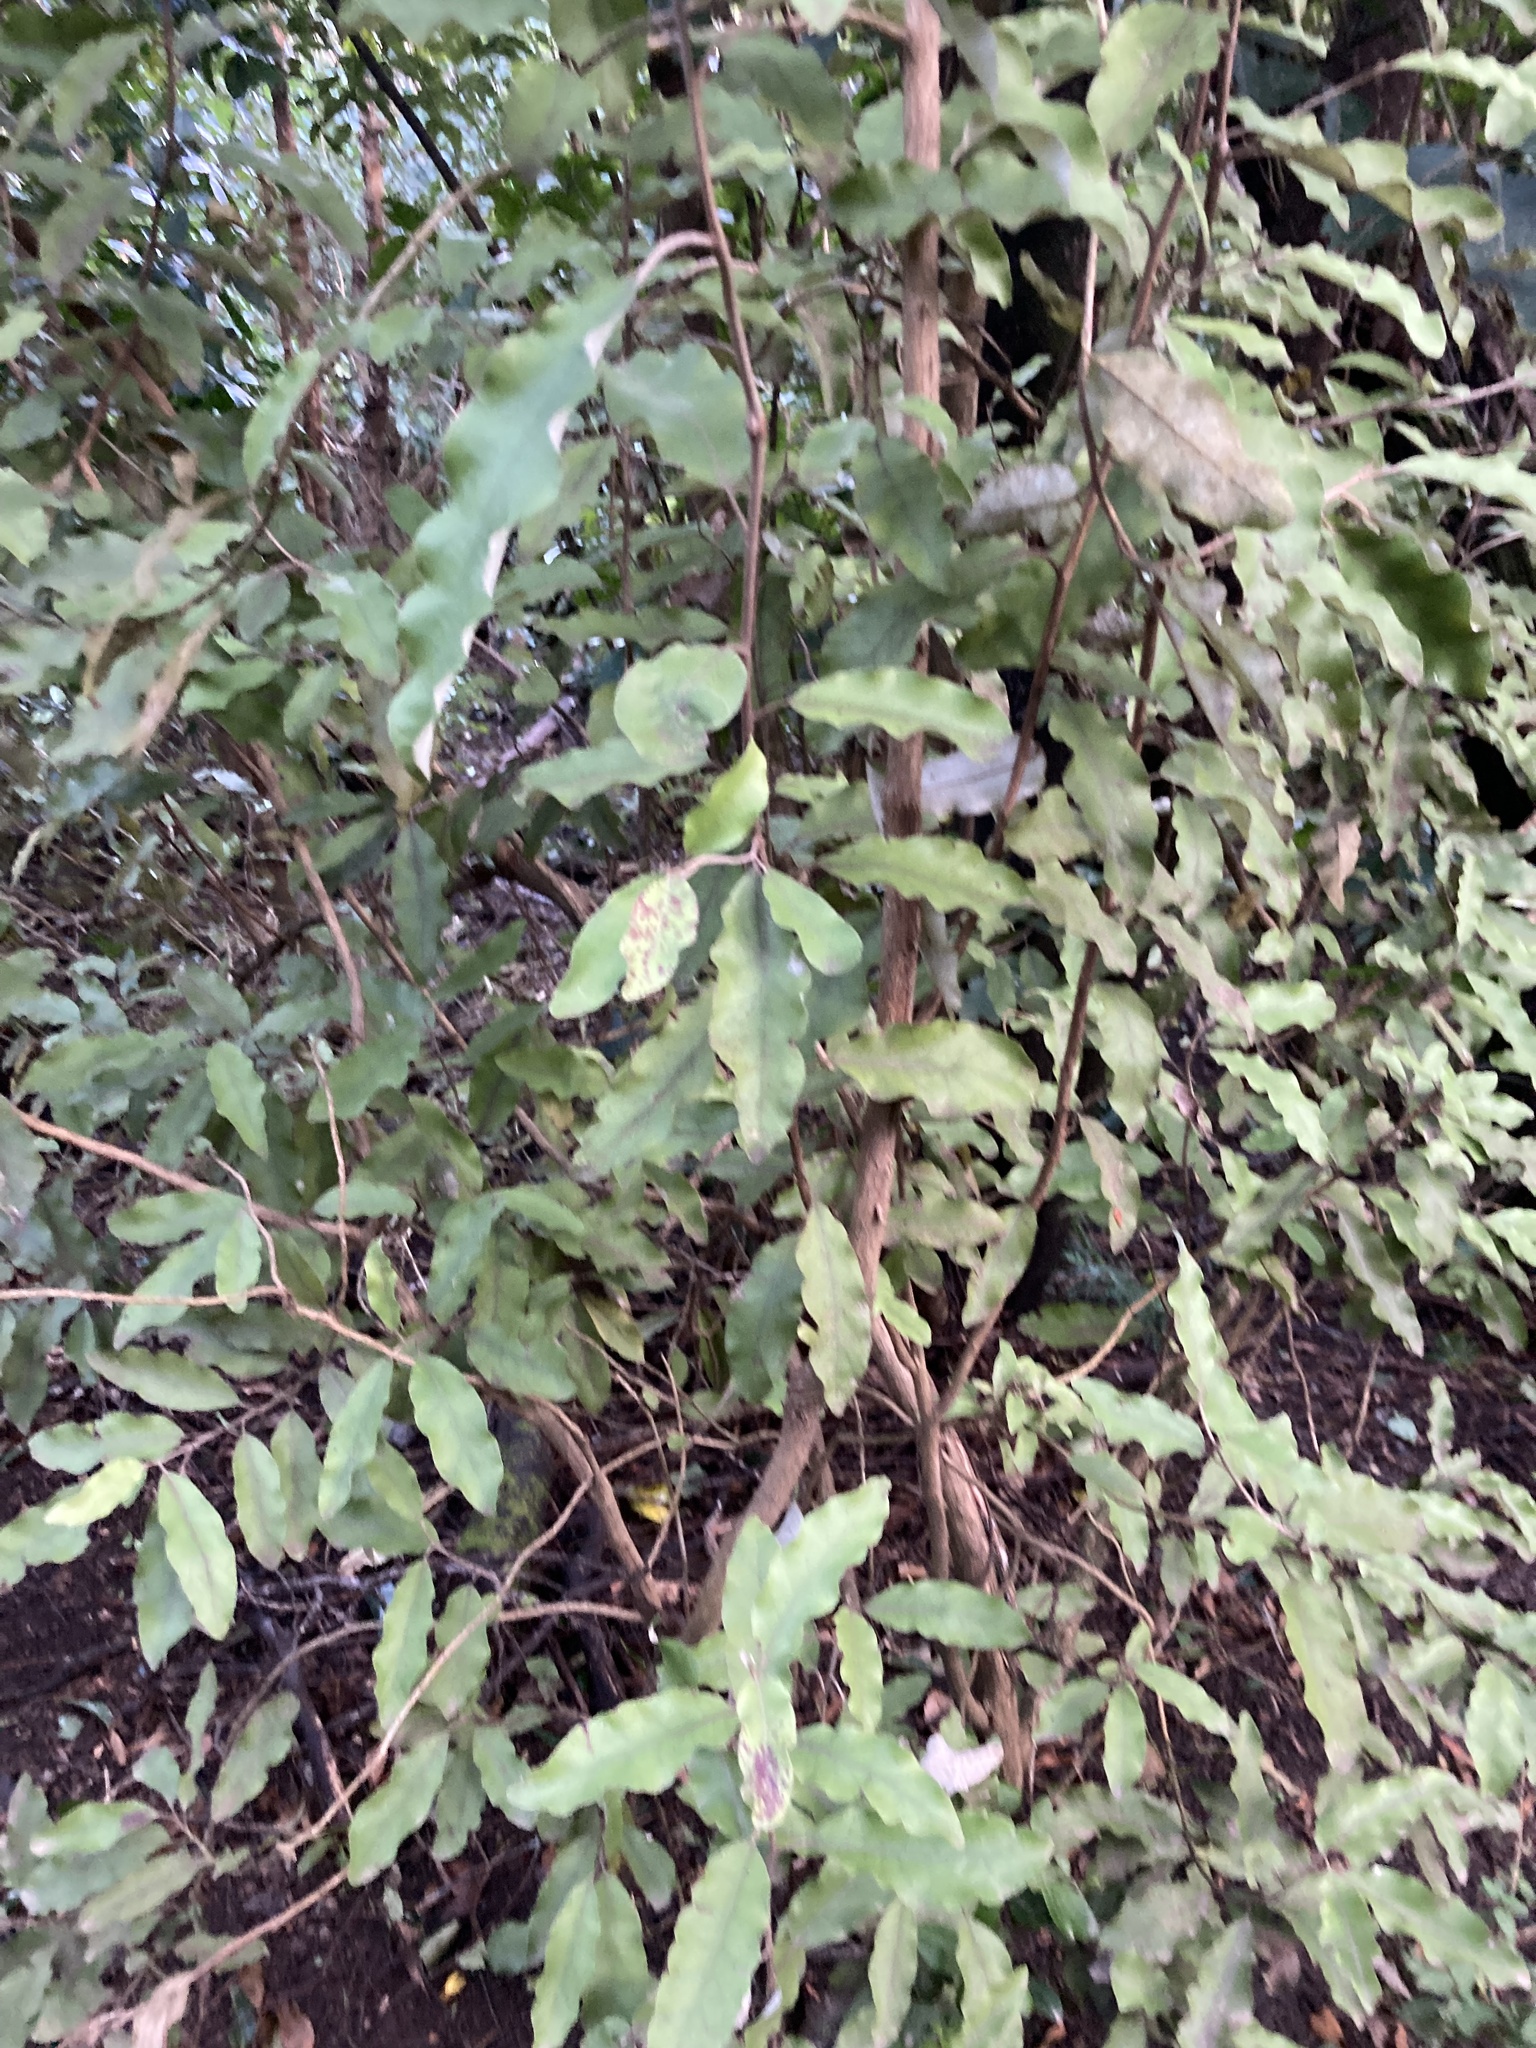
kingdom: Plantae
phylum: Tracheophyta
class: Magnoliopsida
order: Asterales
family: Asteraceae
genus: Olearia
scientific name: Olearia paniculata
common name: Akiraho
